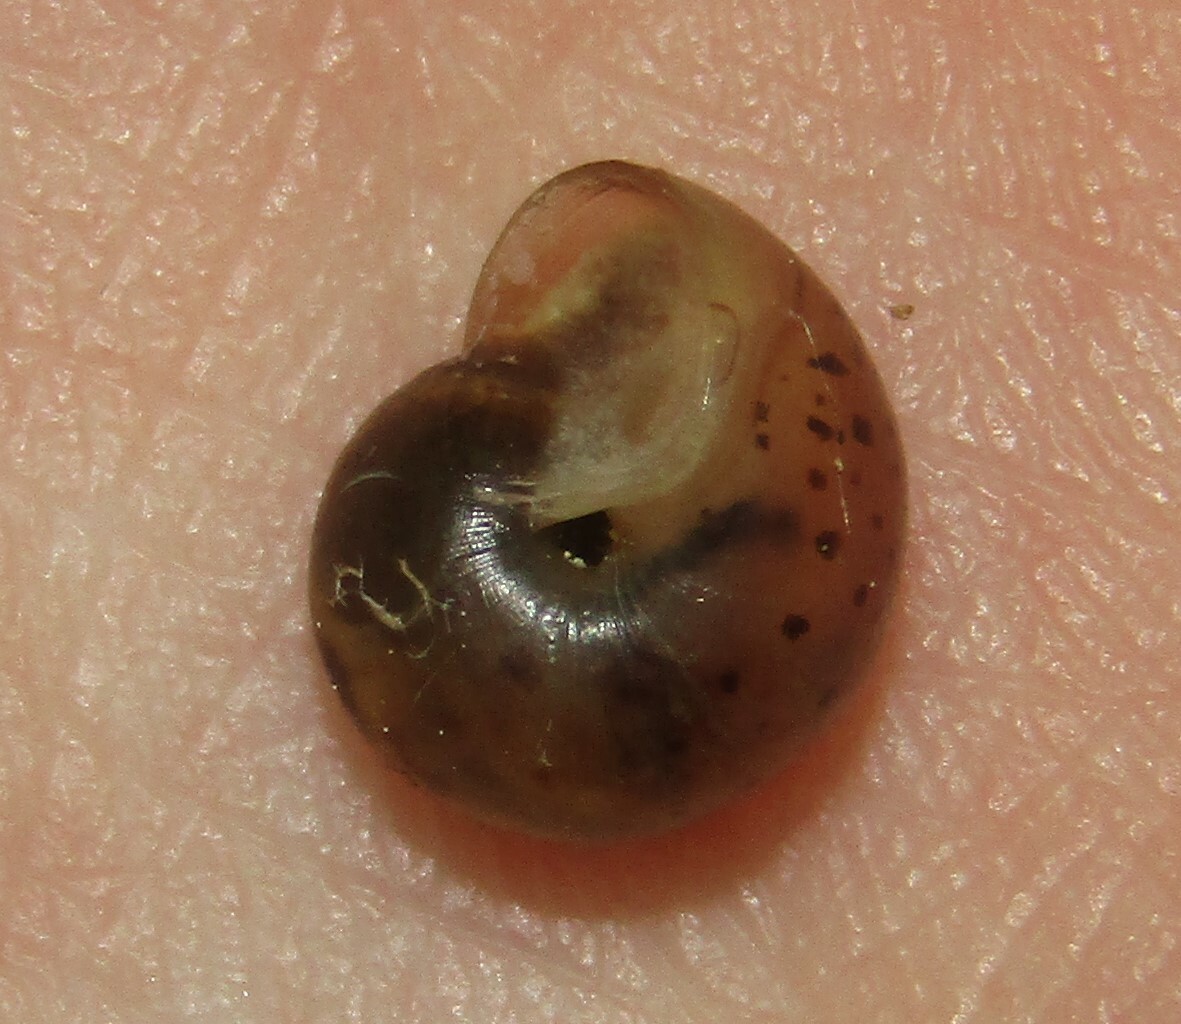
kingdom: Animalia
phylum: Mollusca
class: Gastropoda
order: Stylommatophora
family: Camaenidae
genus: Fruticicola
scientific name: Fruticicola fruticum
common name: Bush snail
